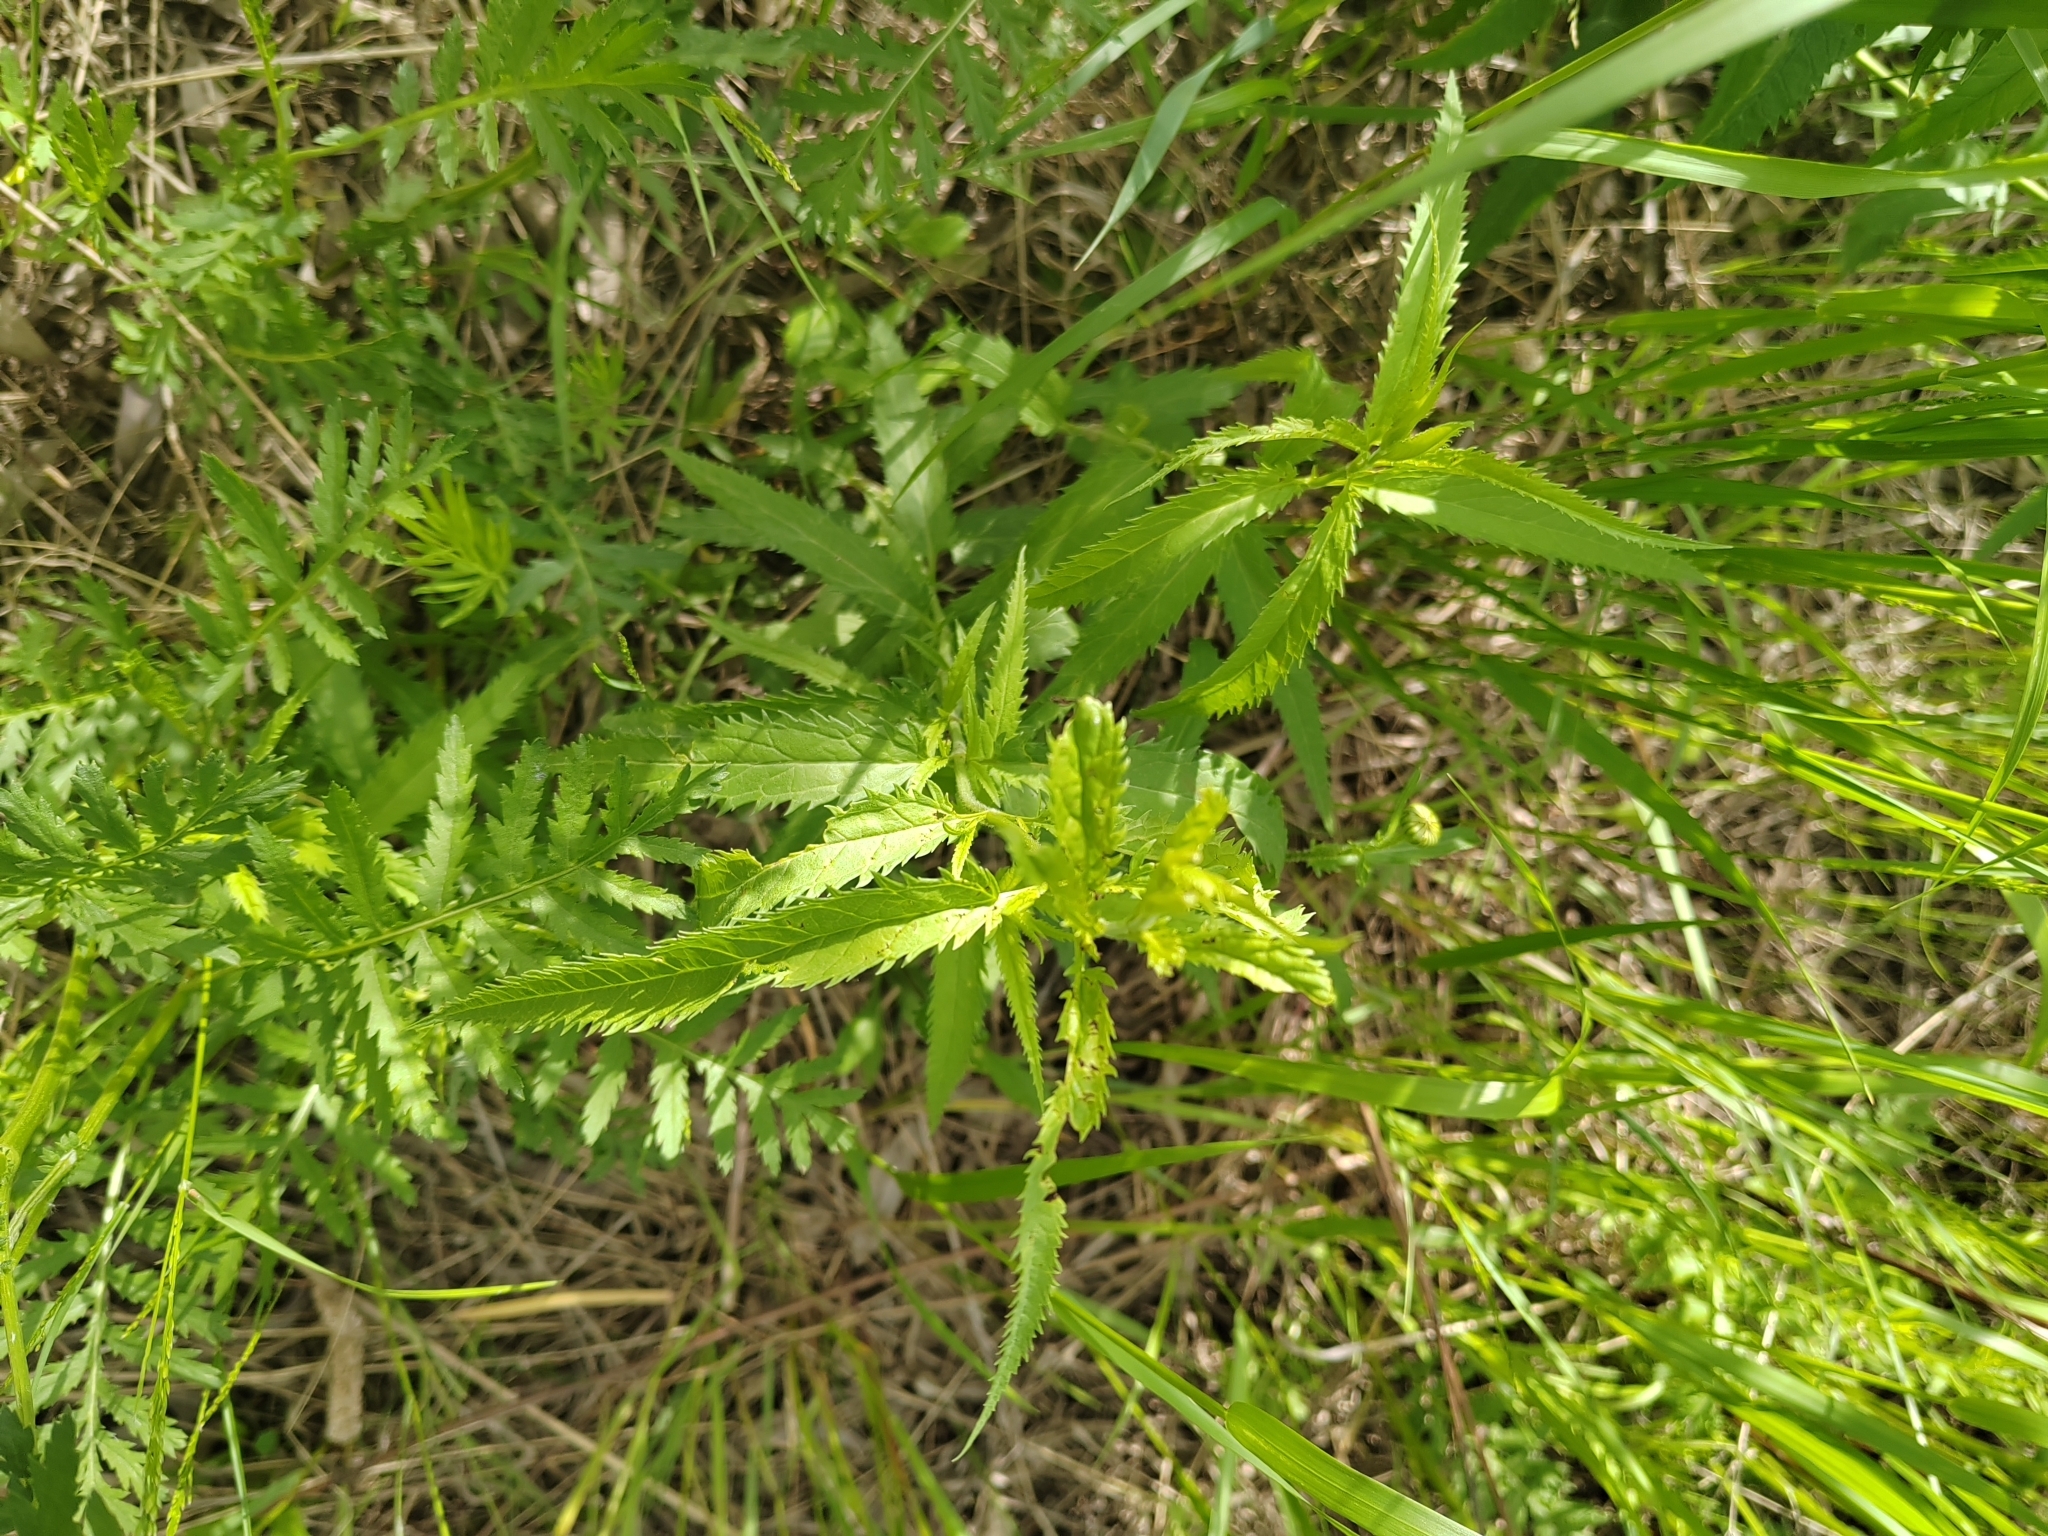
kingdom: Plantae
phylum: Tracheophyta
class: Magnoliopsida
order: Lamiales
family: Plantaginaceae
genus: Veronica
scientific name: Veronica longifolia
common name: Garden speedwell
